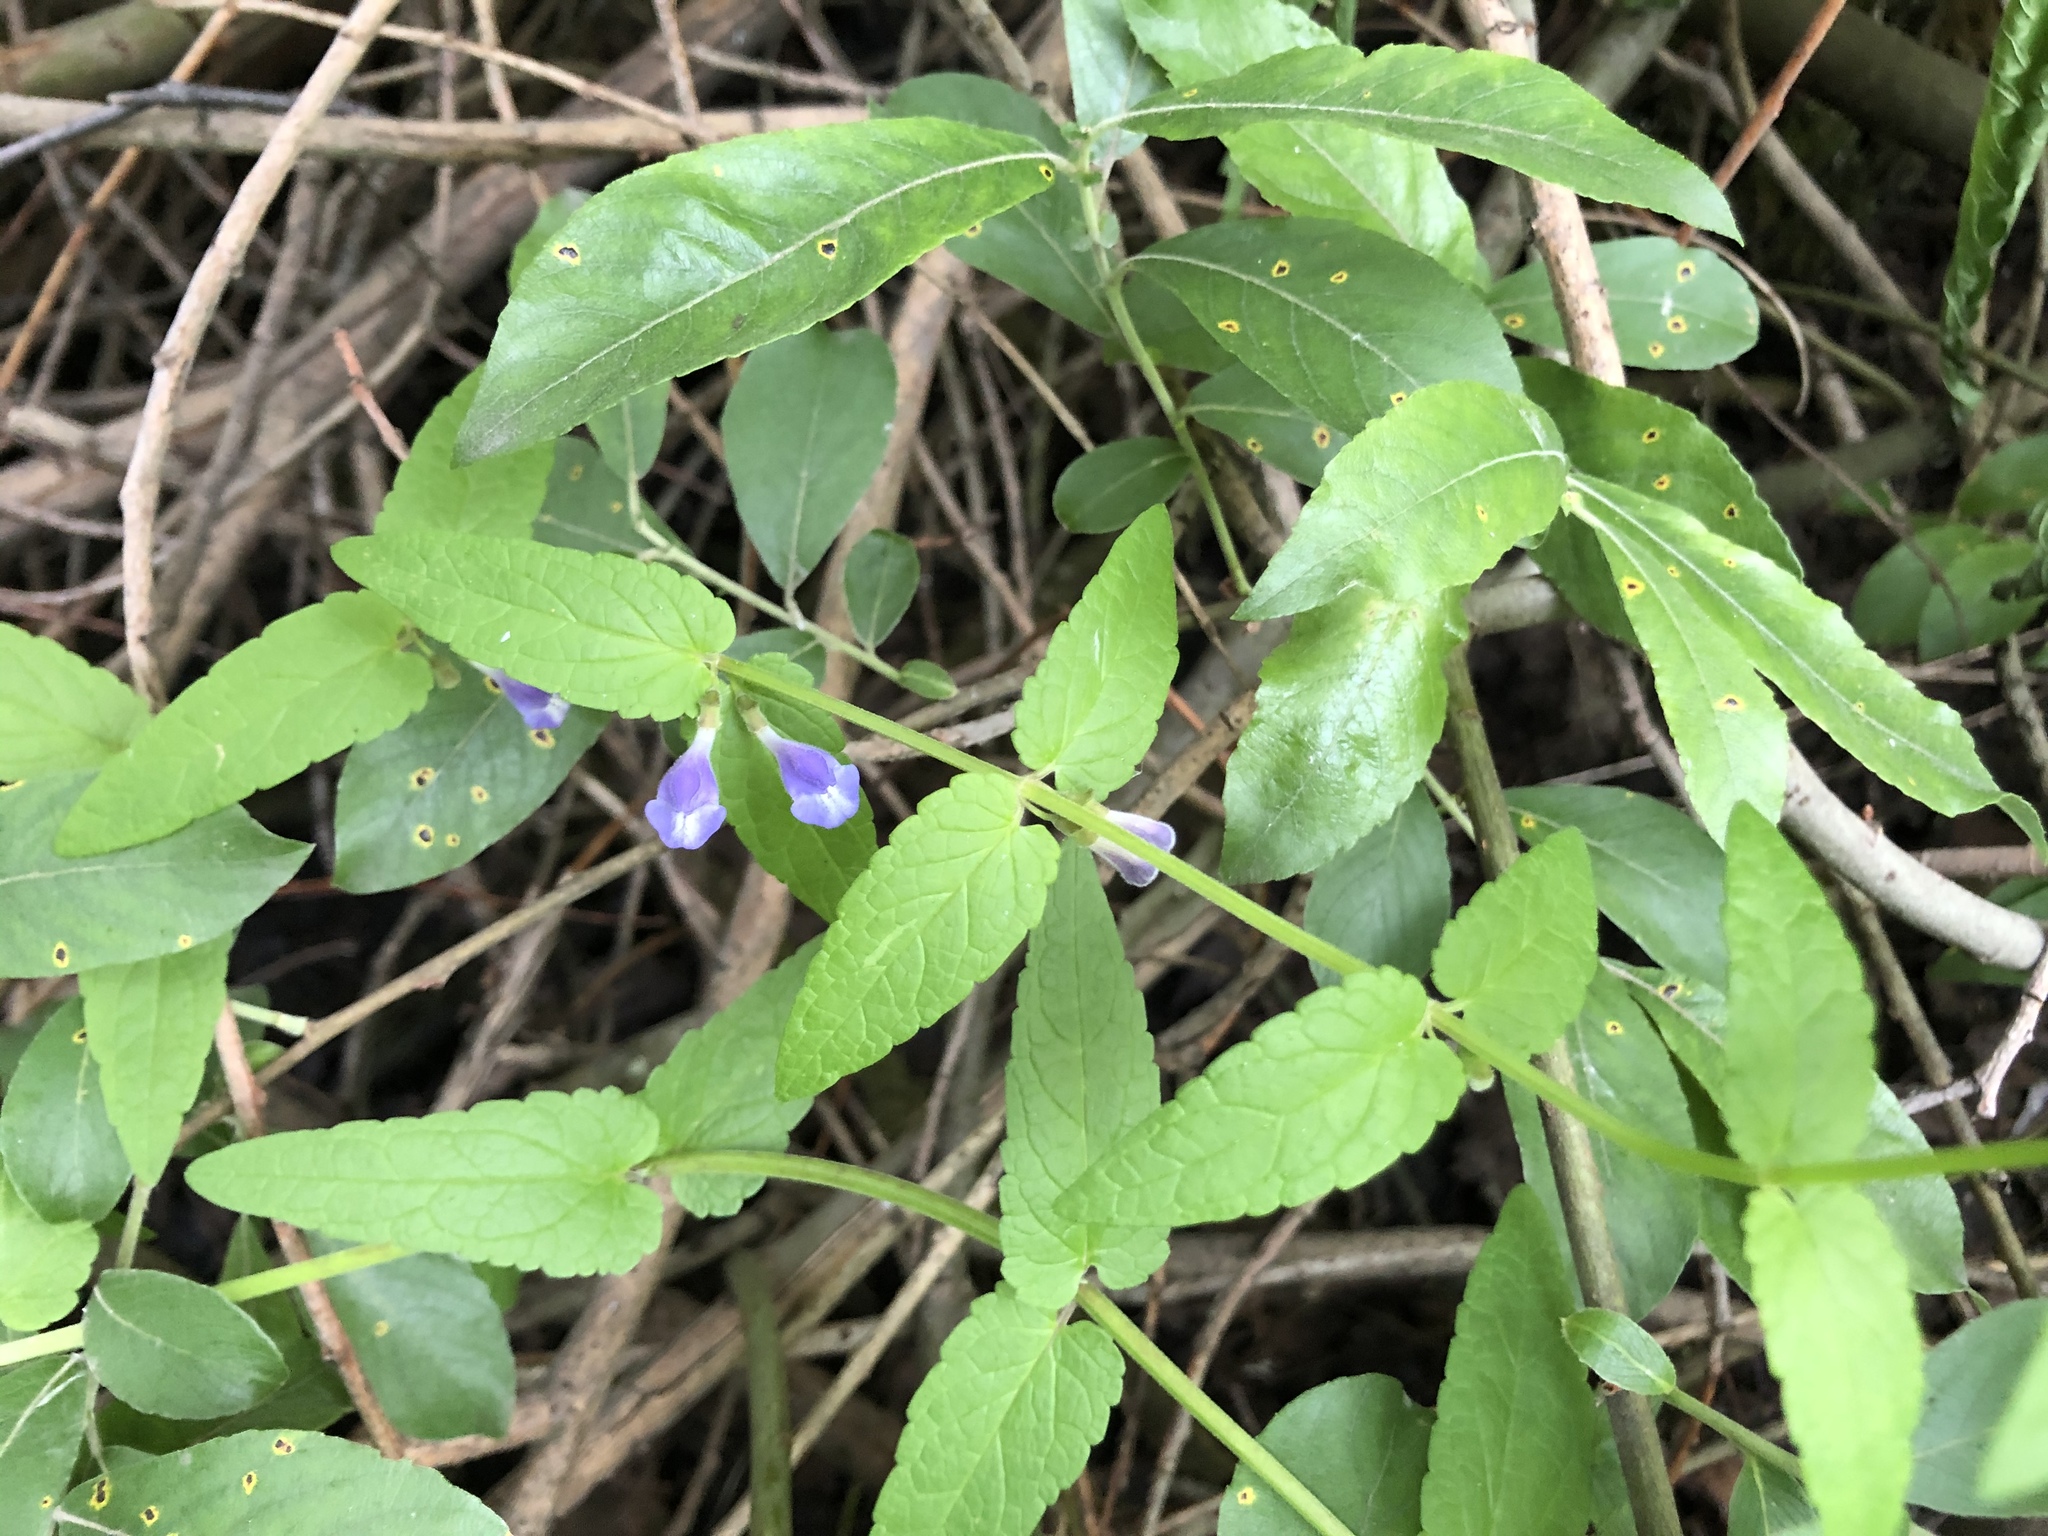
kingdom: Plantae
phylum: Tracheophyta
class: Magnoliopsida
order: Lamiales
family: Lamiaceae
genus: Scutellaria
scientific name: Scutellaria galericulata
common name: Skullcap
